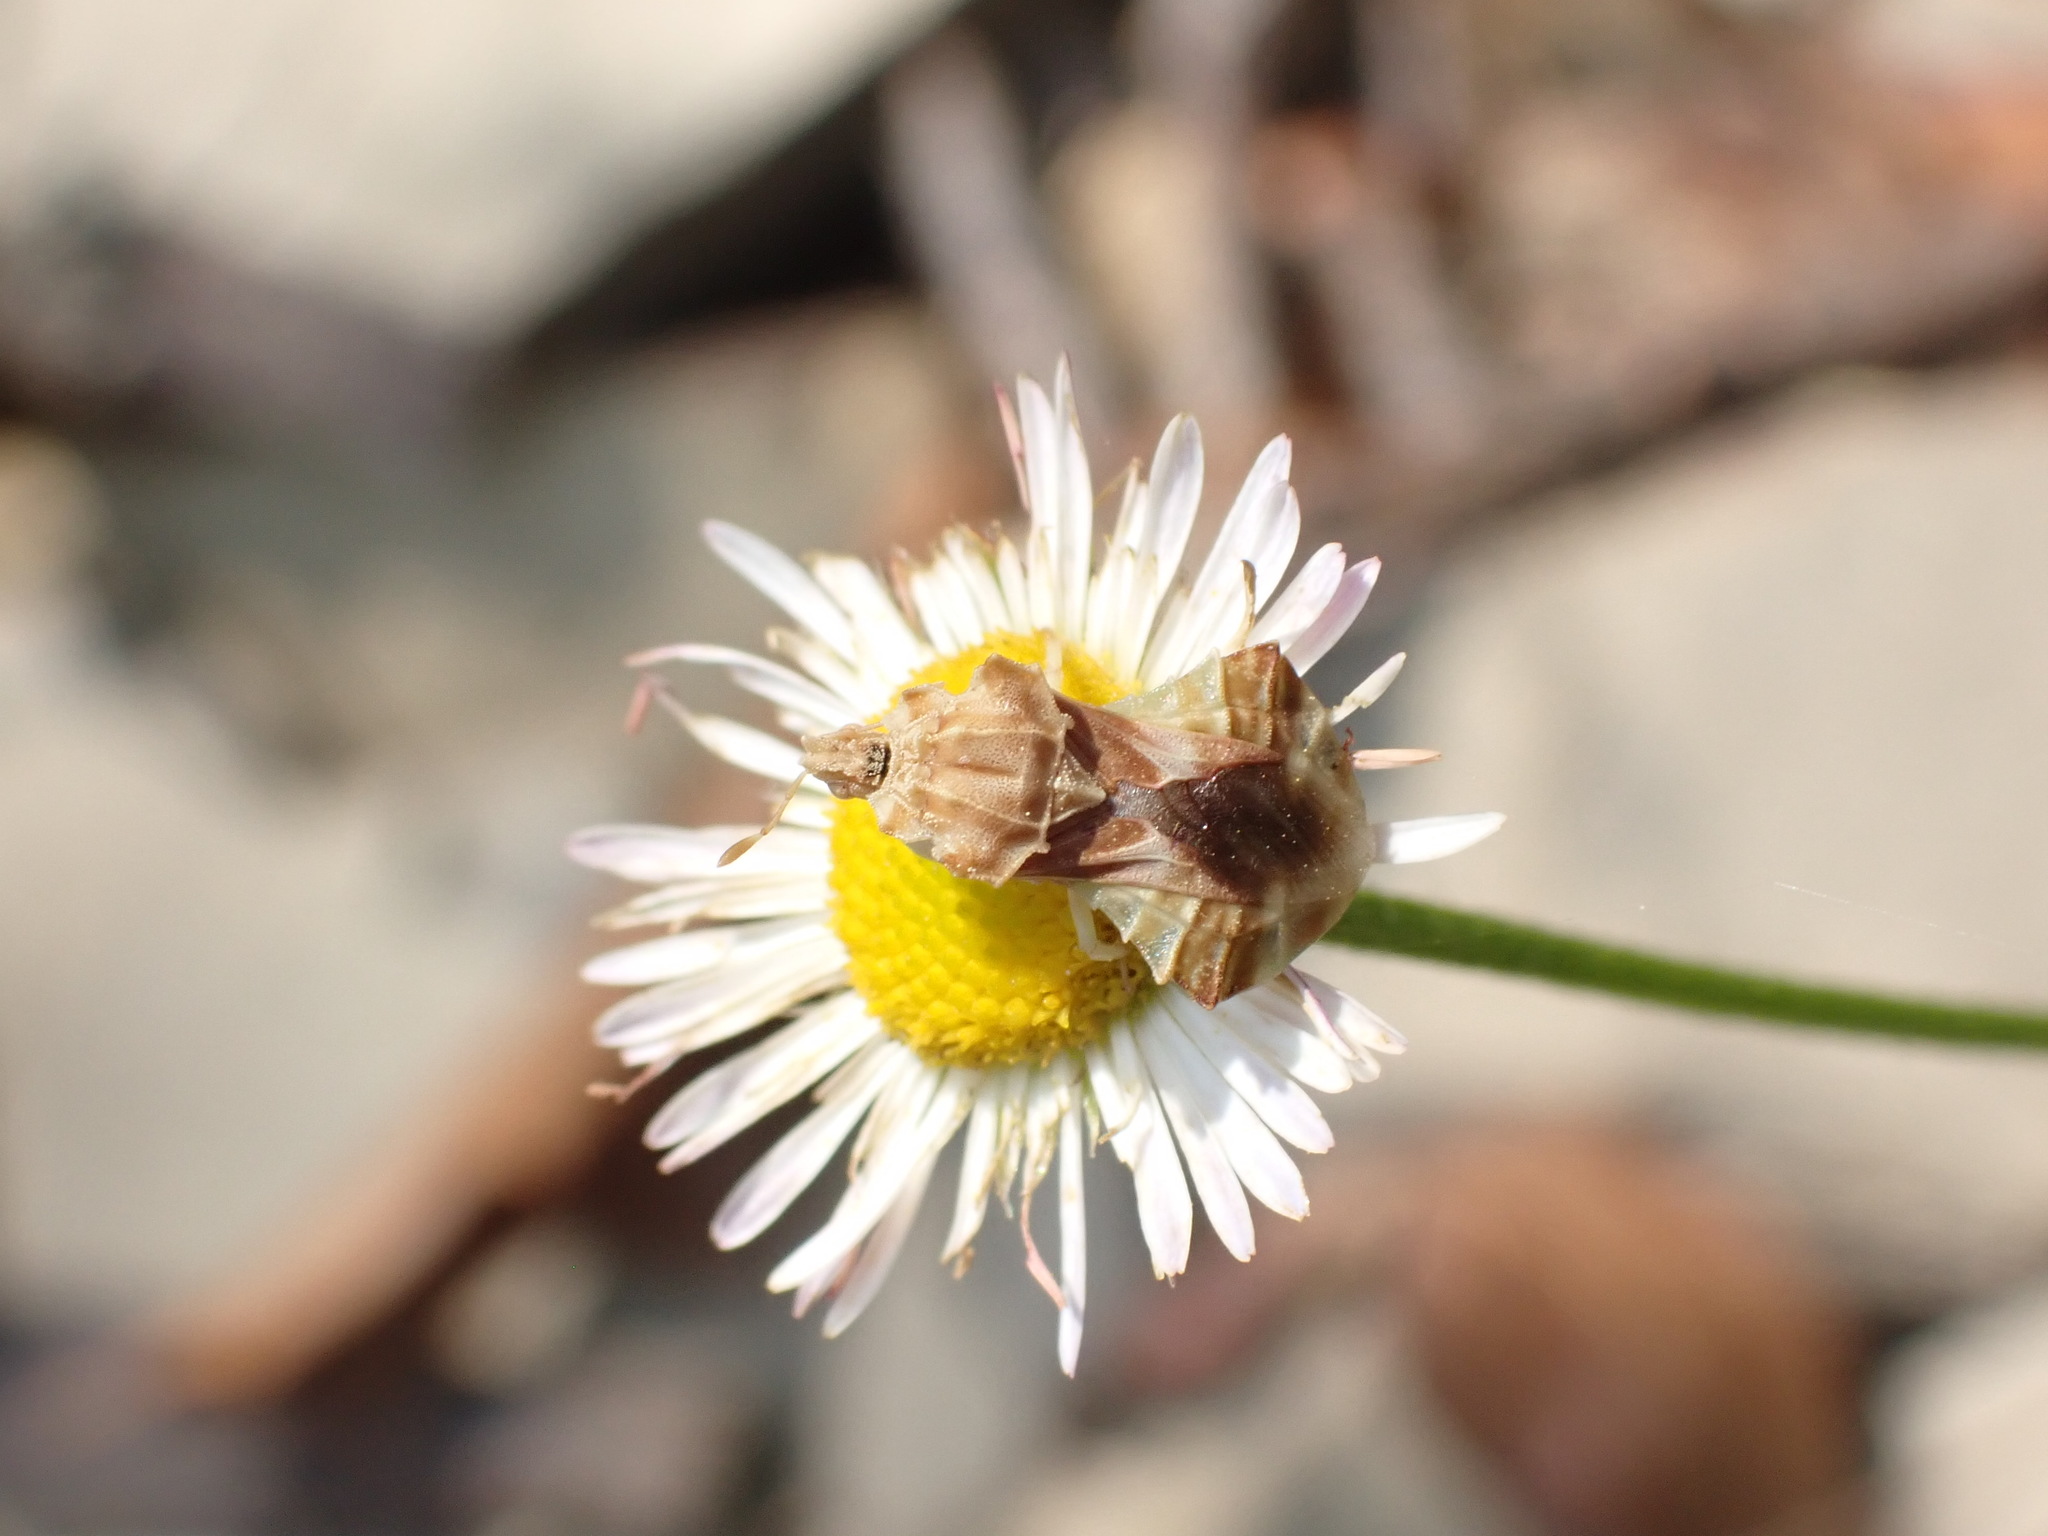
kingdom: Animalia
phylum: Arthropoda
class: Insecta
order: Hemiptera
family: Reduviidae
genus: Phymata
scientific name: Phymata fasciata
